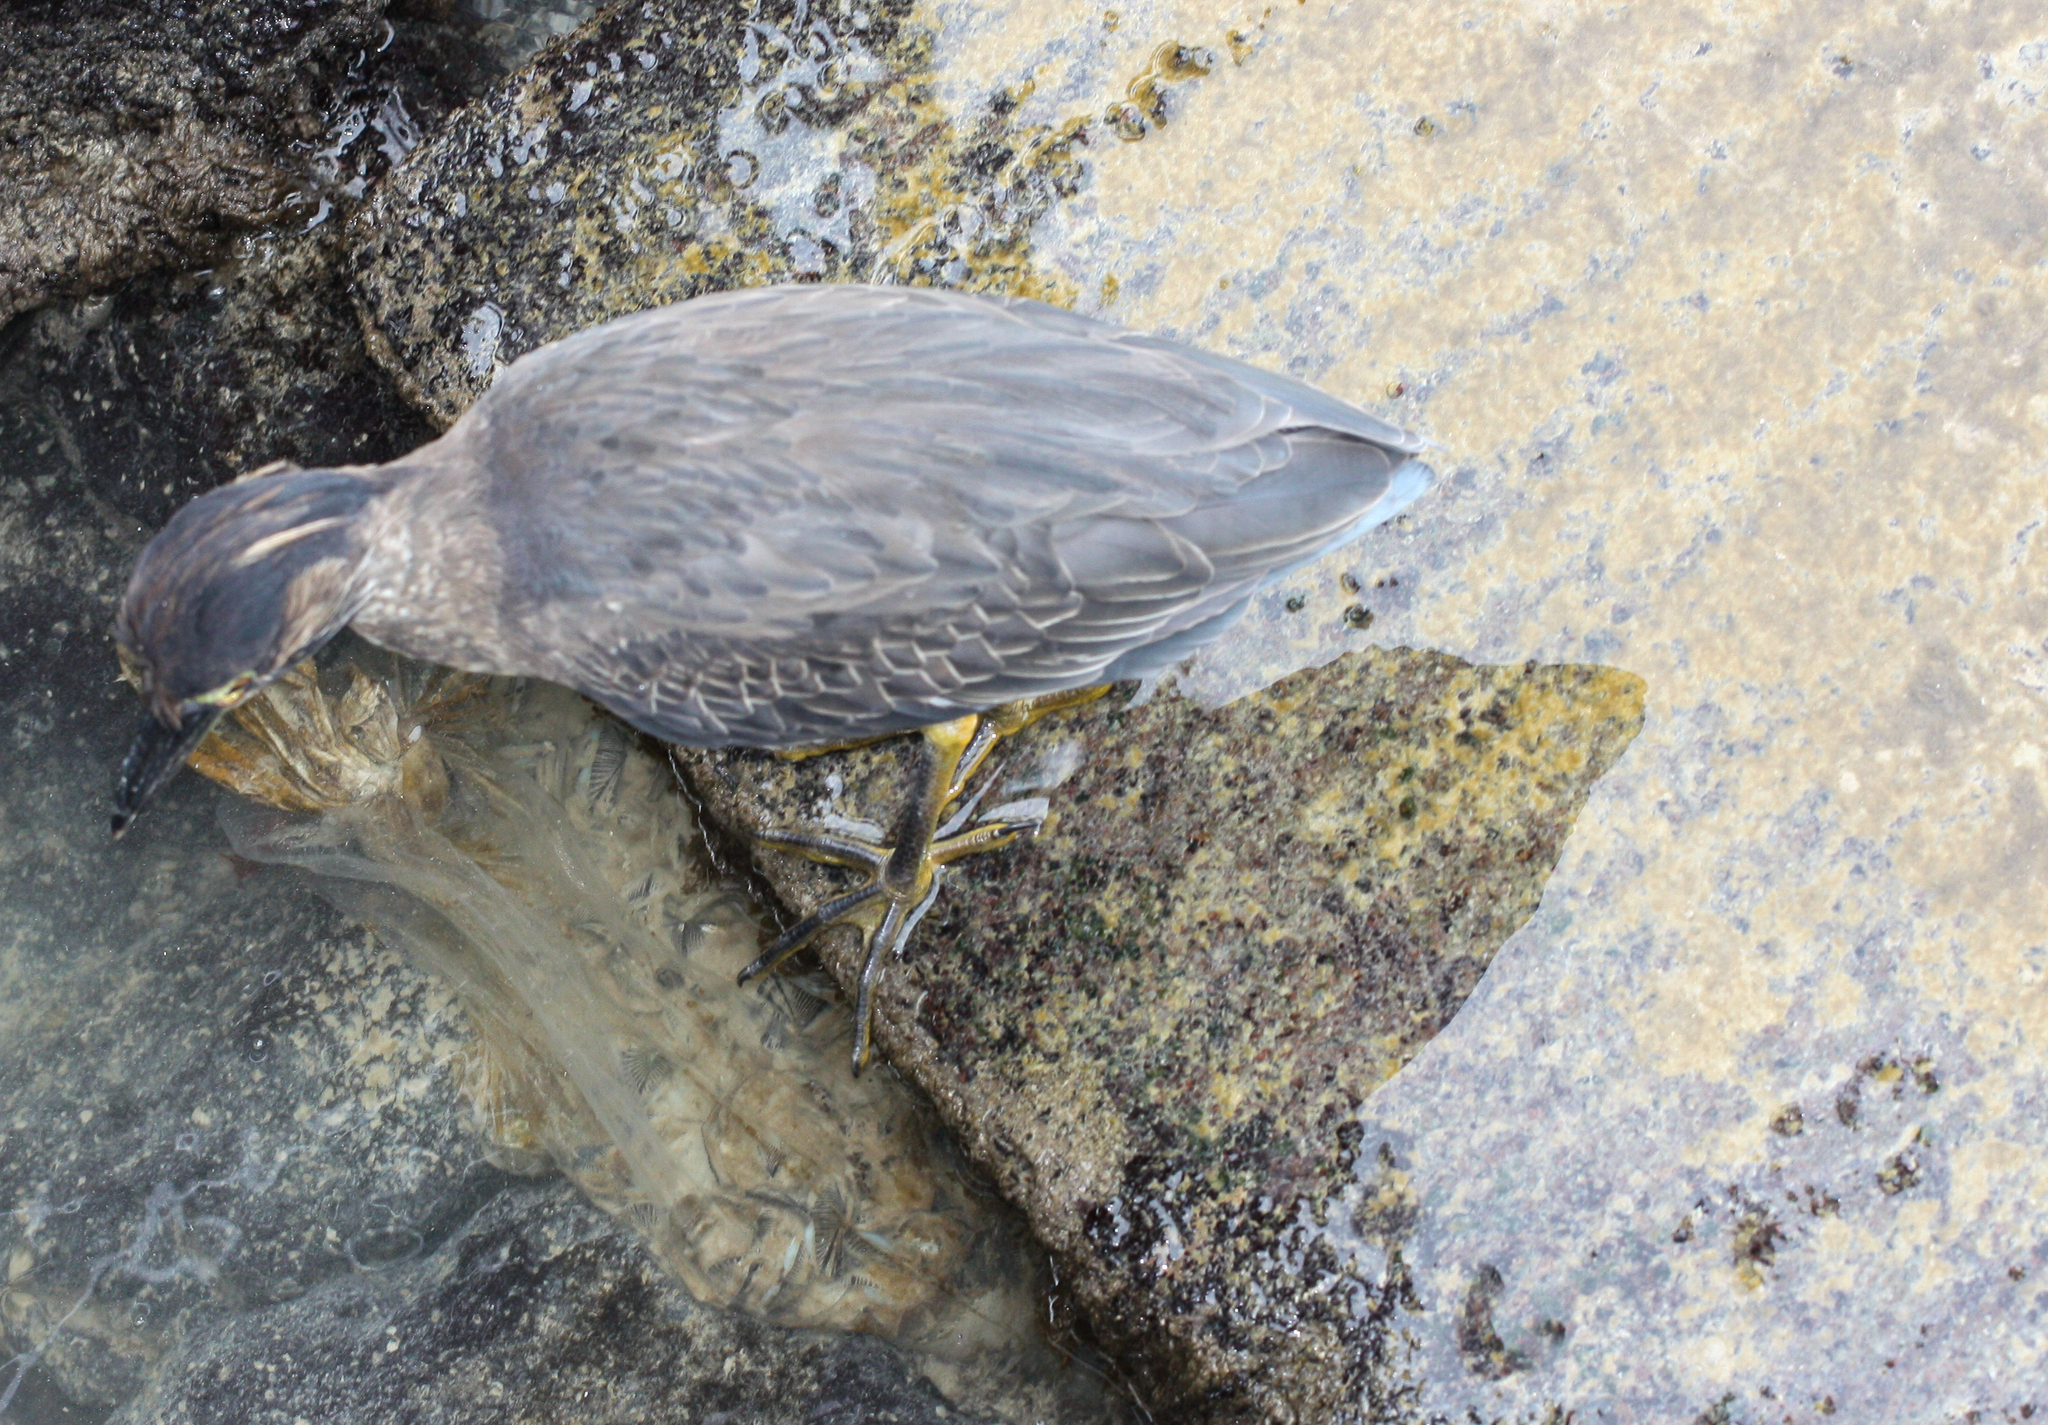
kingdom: Animalia
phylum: Chordata
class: Aves
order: Pelecaniformes
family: Ardeidae
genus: Butorides
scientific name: Butorides striata
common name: Striated heron
